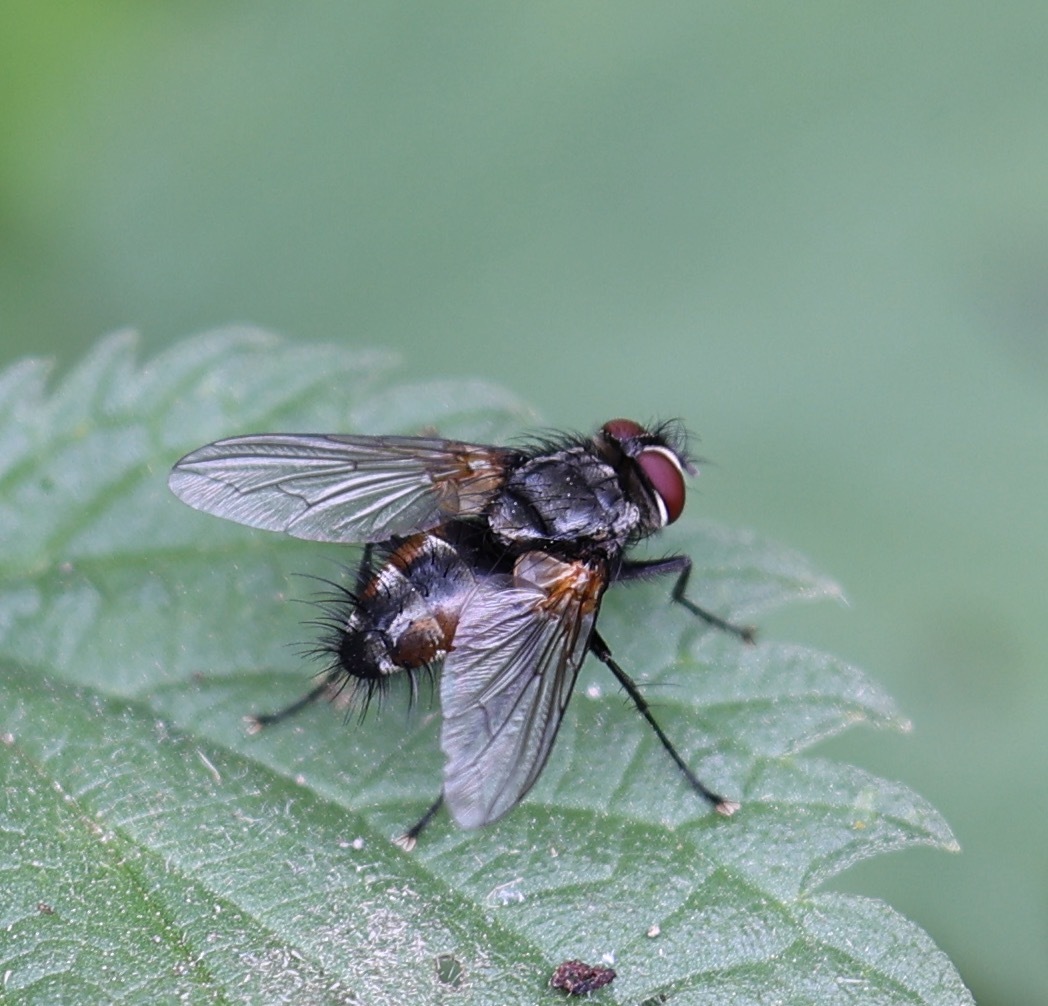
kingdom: Animalia
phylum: Arthropoda
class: Insecta
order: Diptera
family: Tachinidae
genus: Thelaira
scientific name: Thelaira nigripes
